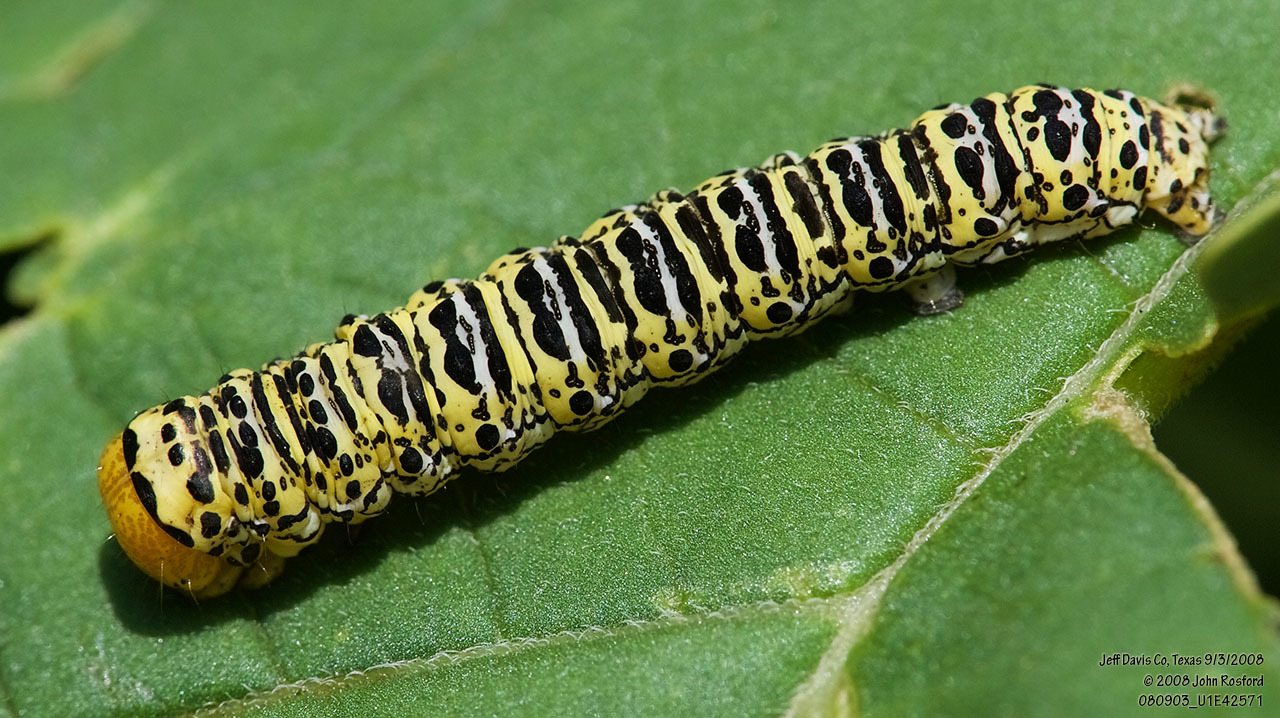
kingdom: Animalia
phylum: Arthropoda
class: Insecta
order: Lepidoptera
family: Noctuidae
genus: Basilodes
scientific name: Basilodes chrysopis
